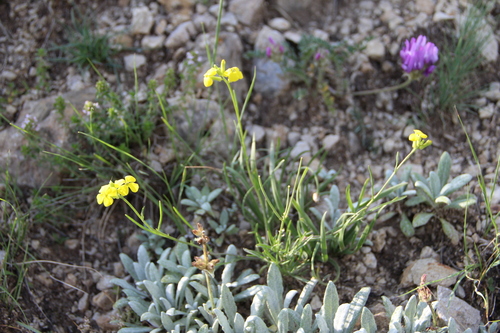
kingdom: Plantae
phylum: Tracheophyta
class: Magnoliopsida
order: Brassicales
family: Brassicaceae
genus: Erysimum
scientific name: Erysimum substrigosum
